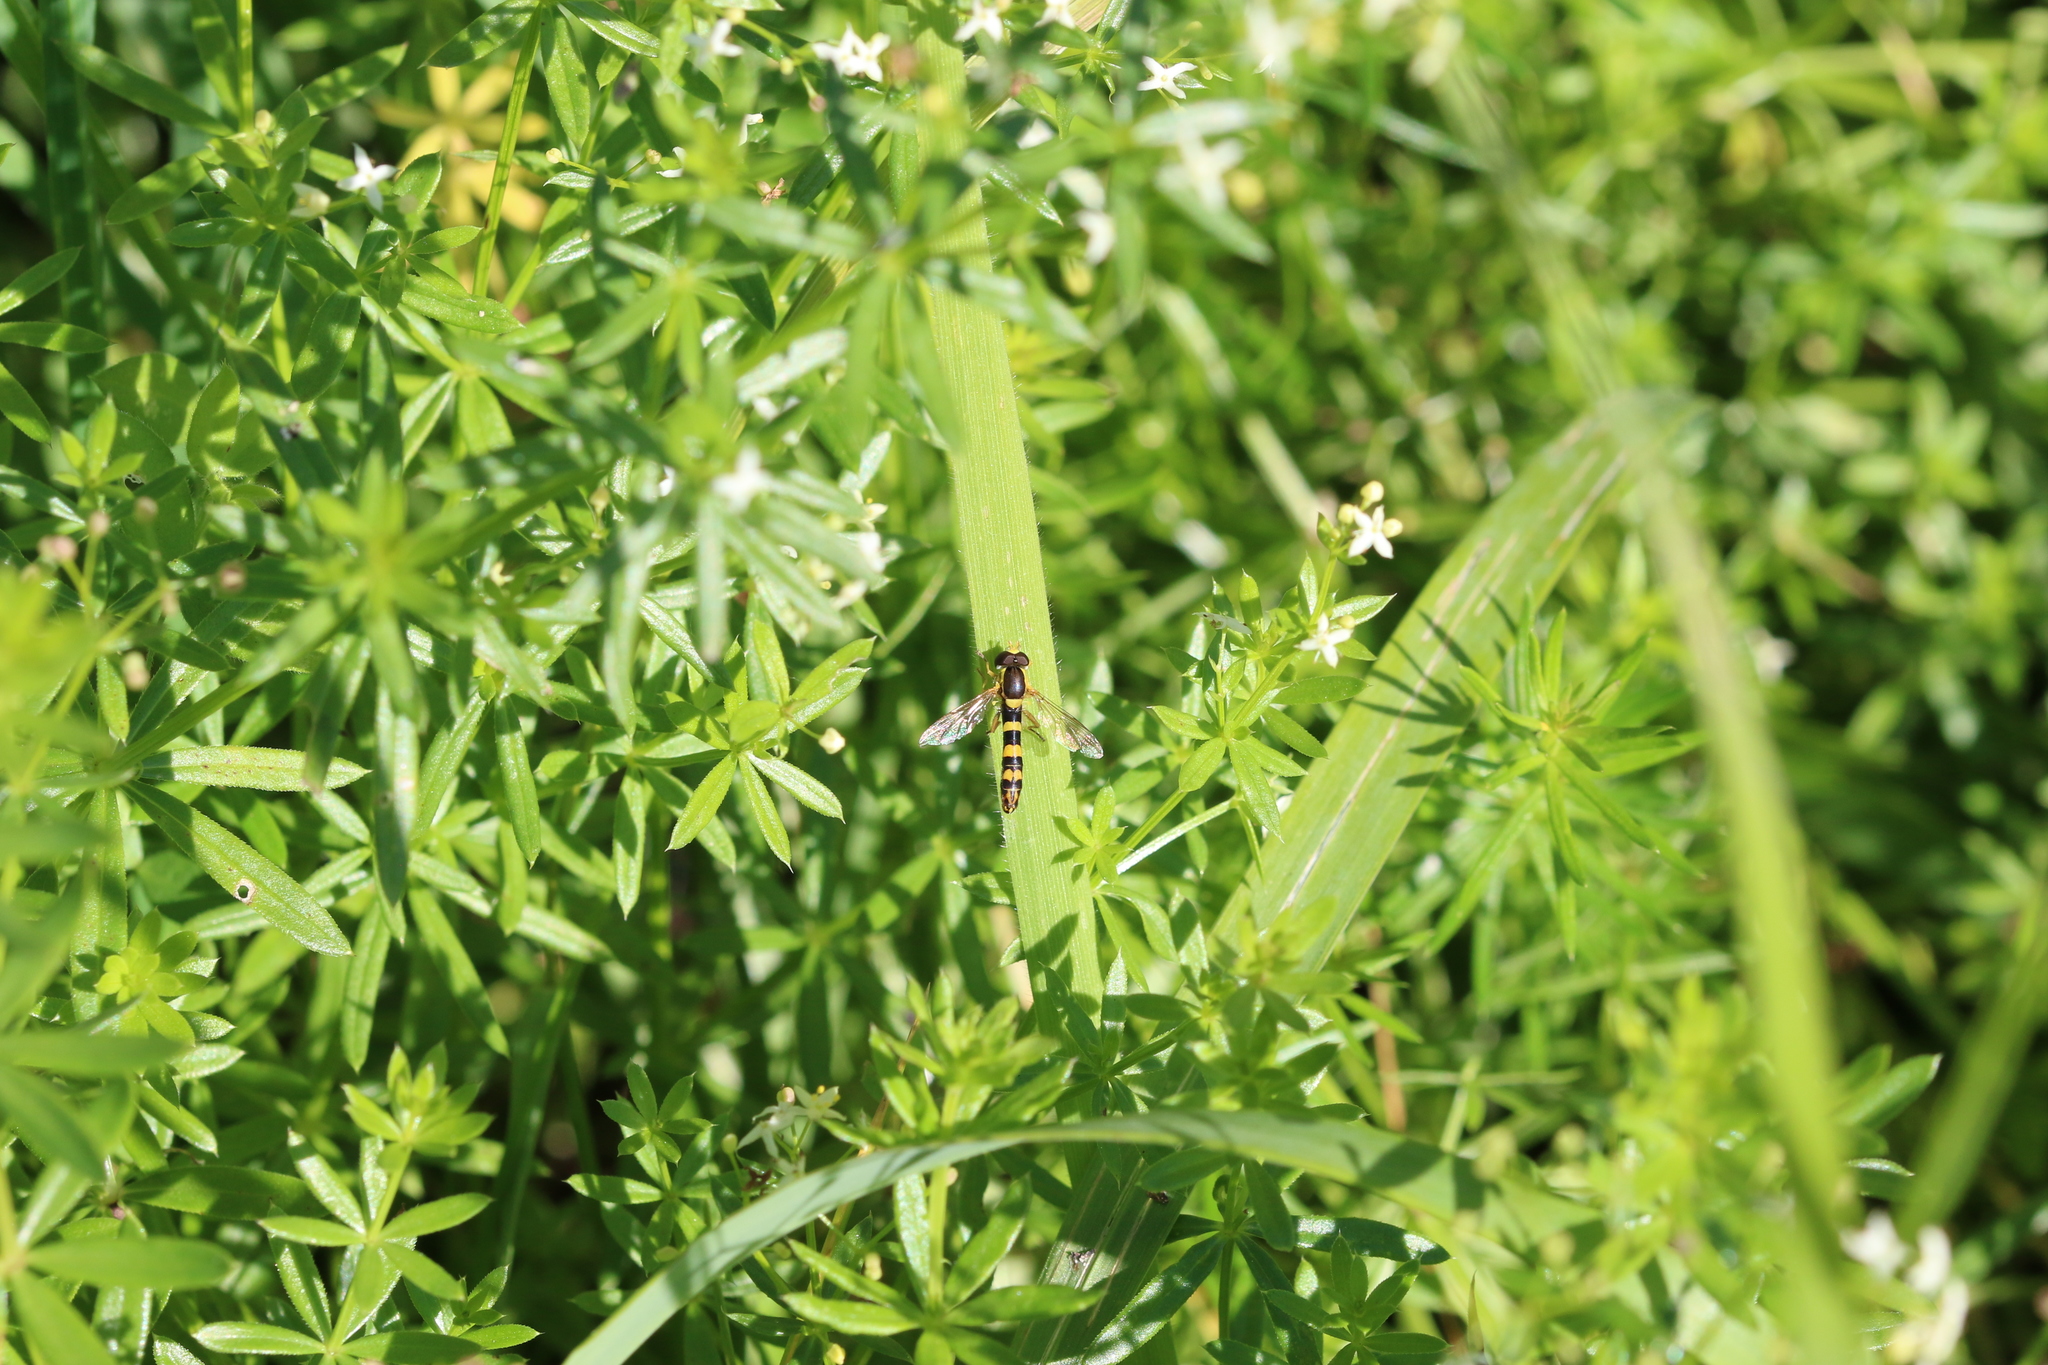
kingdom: Animalia
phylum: Arthropoda
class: Insecta
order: Diptera
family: Syrphidae
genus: Sphaerophoria
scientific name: Sphaerophoria scripta
